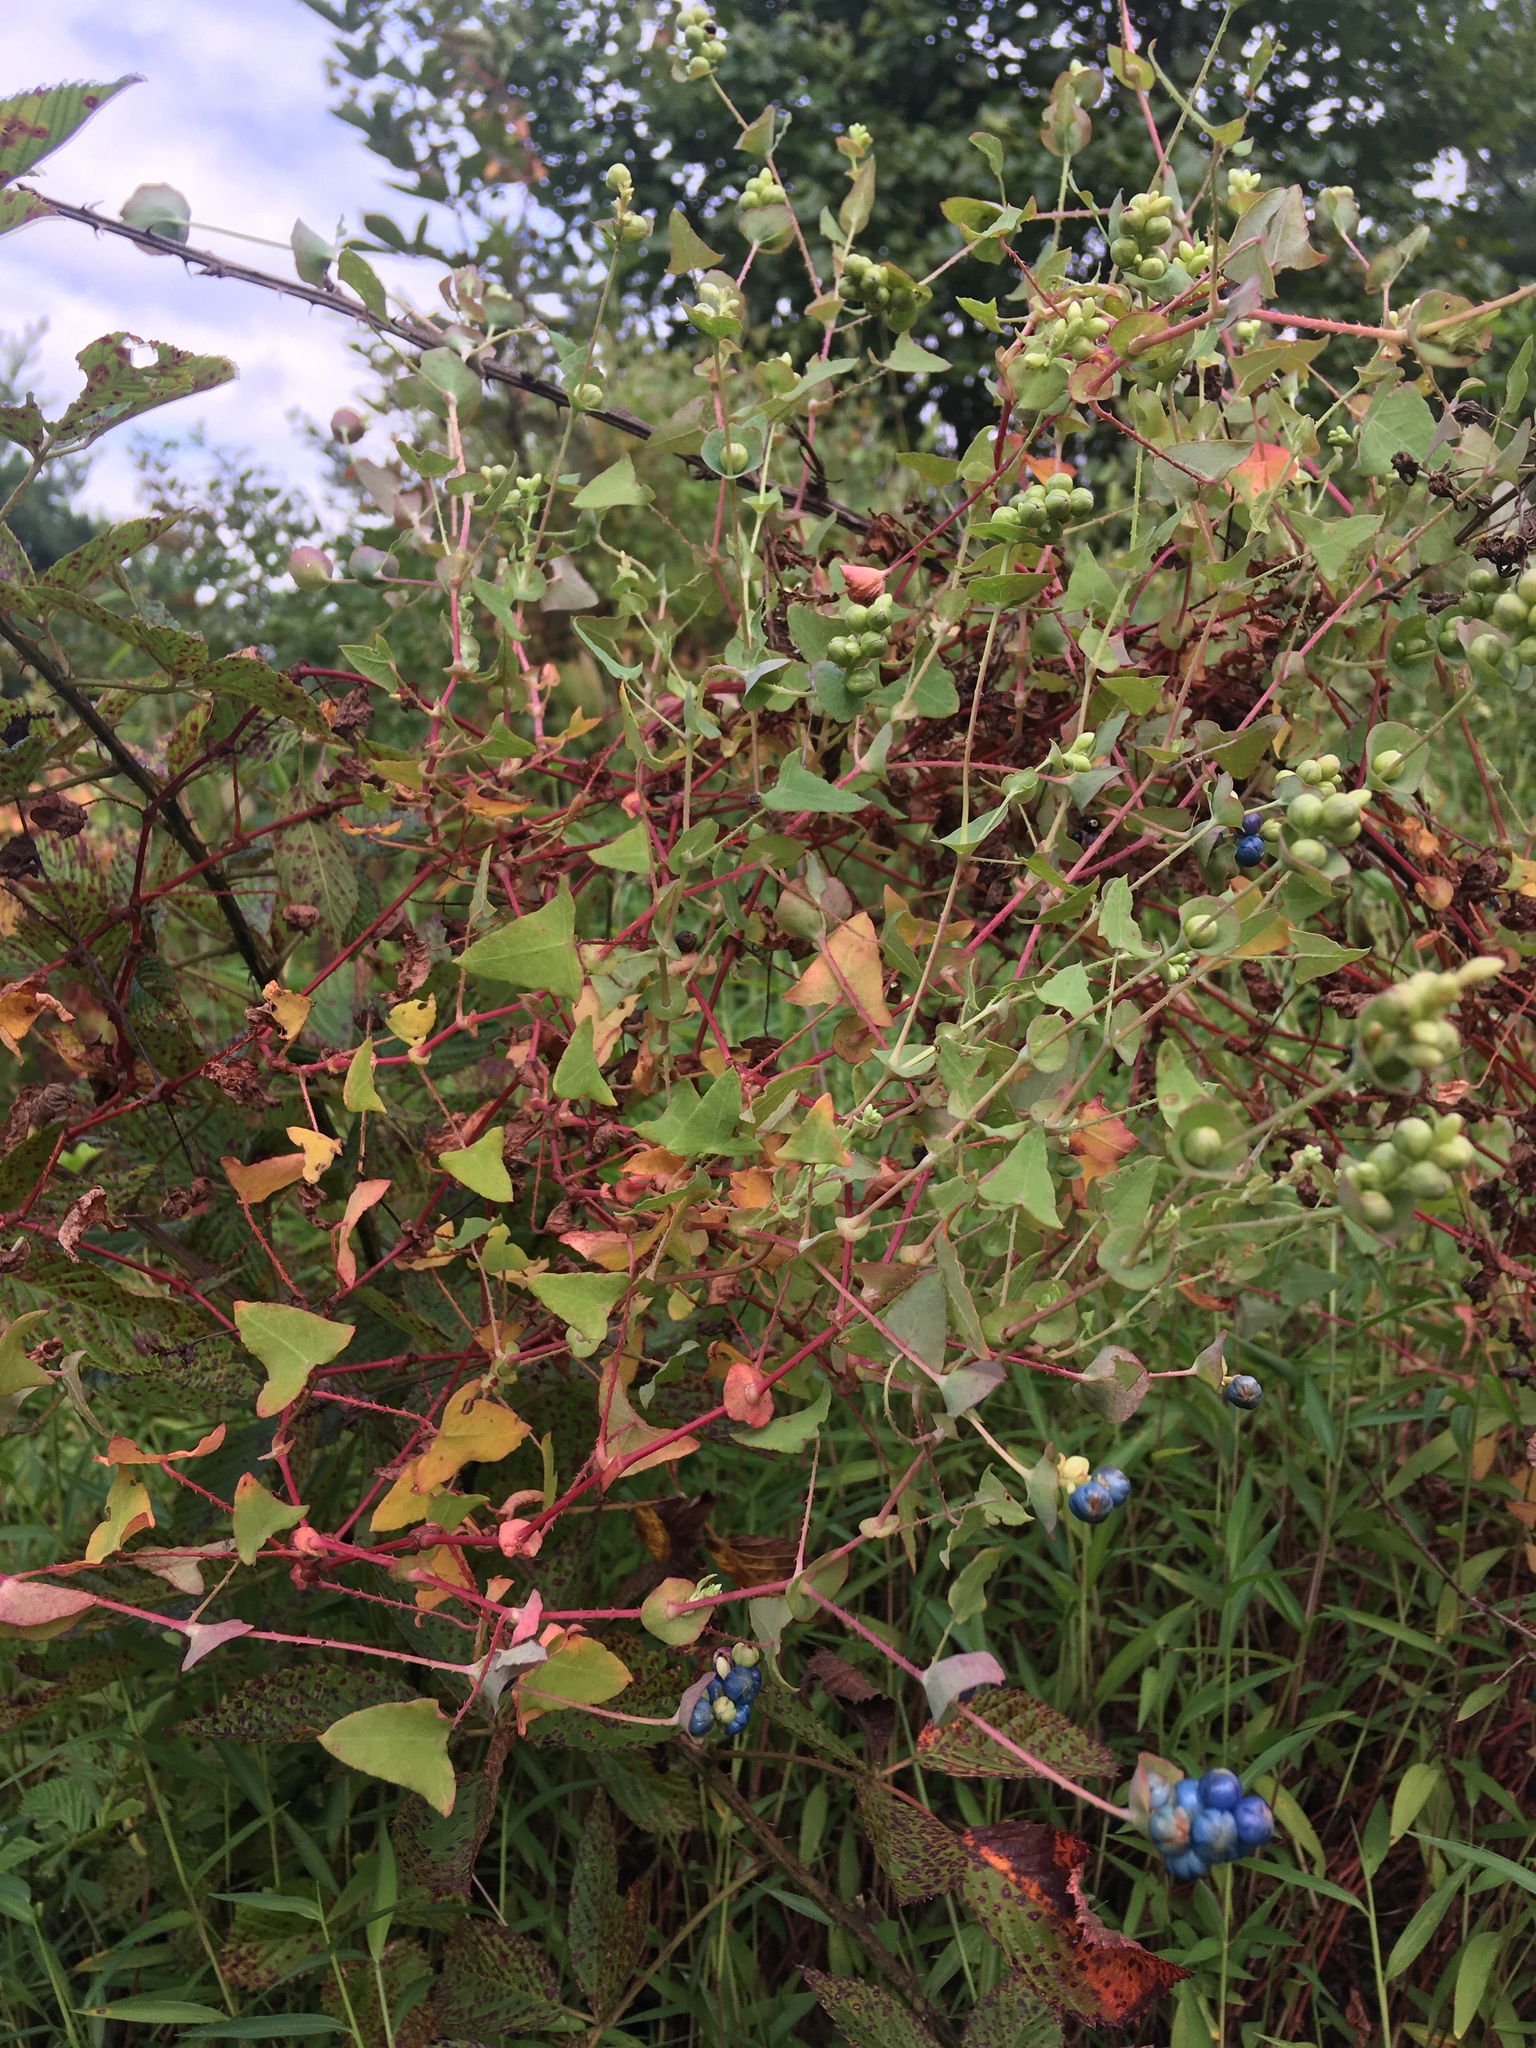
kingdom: Plantae
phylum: Tracheophyta
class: Magnoliopsida
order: Caryophyllales
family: Polygonaceae
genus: Persicaria
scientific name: Persicaria perfoliata
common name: Asiatic tearthumb
